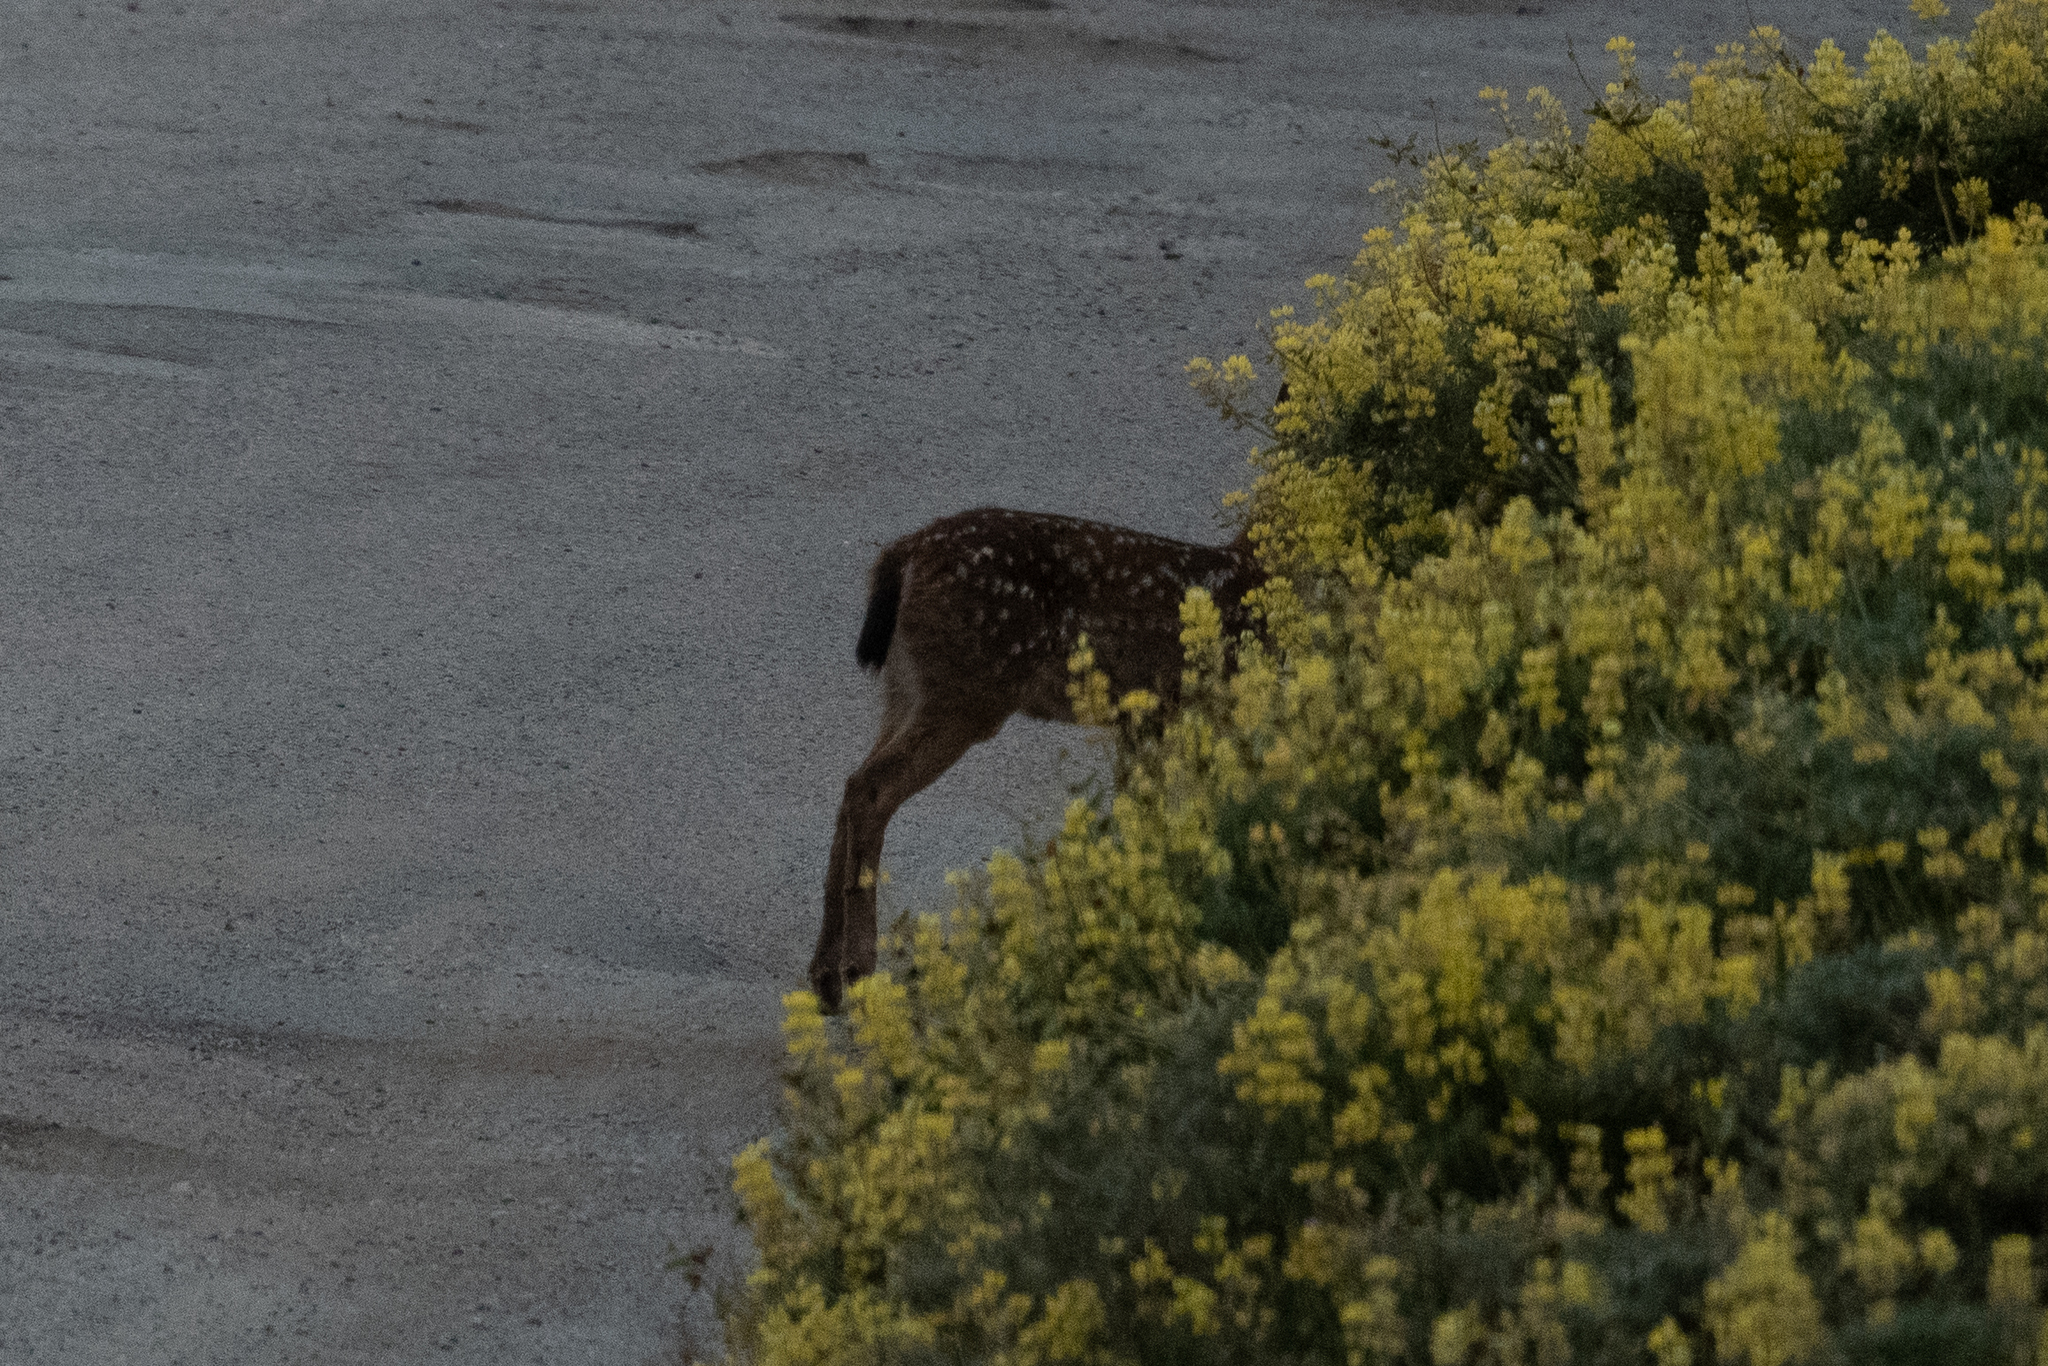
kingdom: Animalia
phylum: Chordata
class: Mammalia
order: Artiodactyla
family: Cervidae
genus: Odocoileus
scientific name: Odocoileus hemionus
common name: Mule deer
